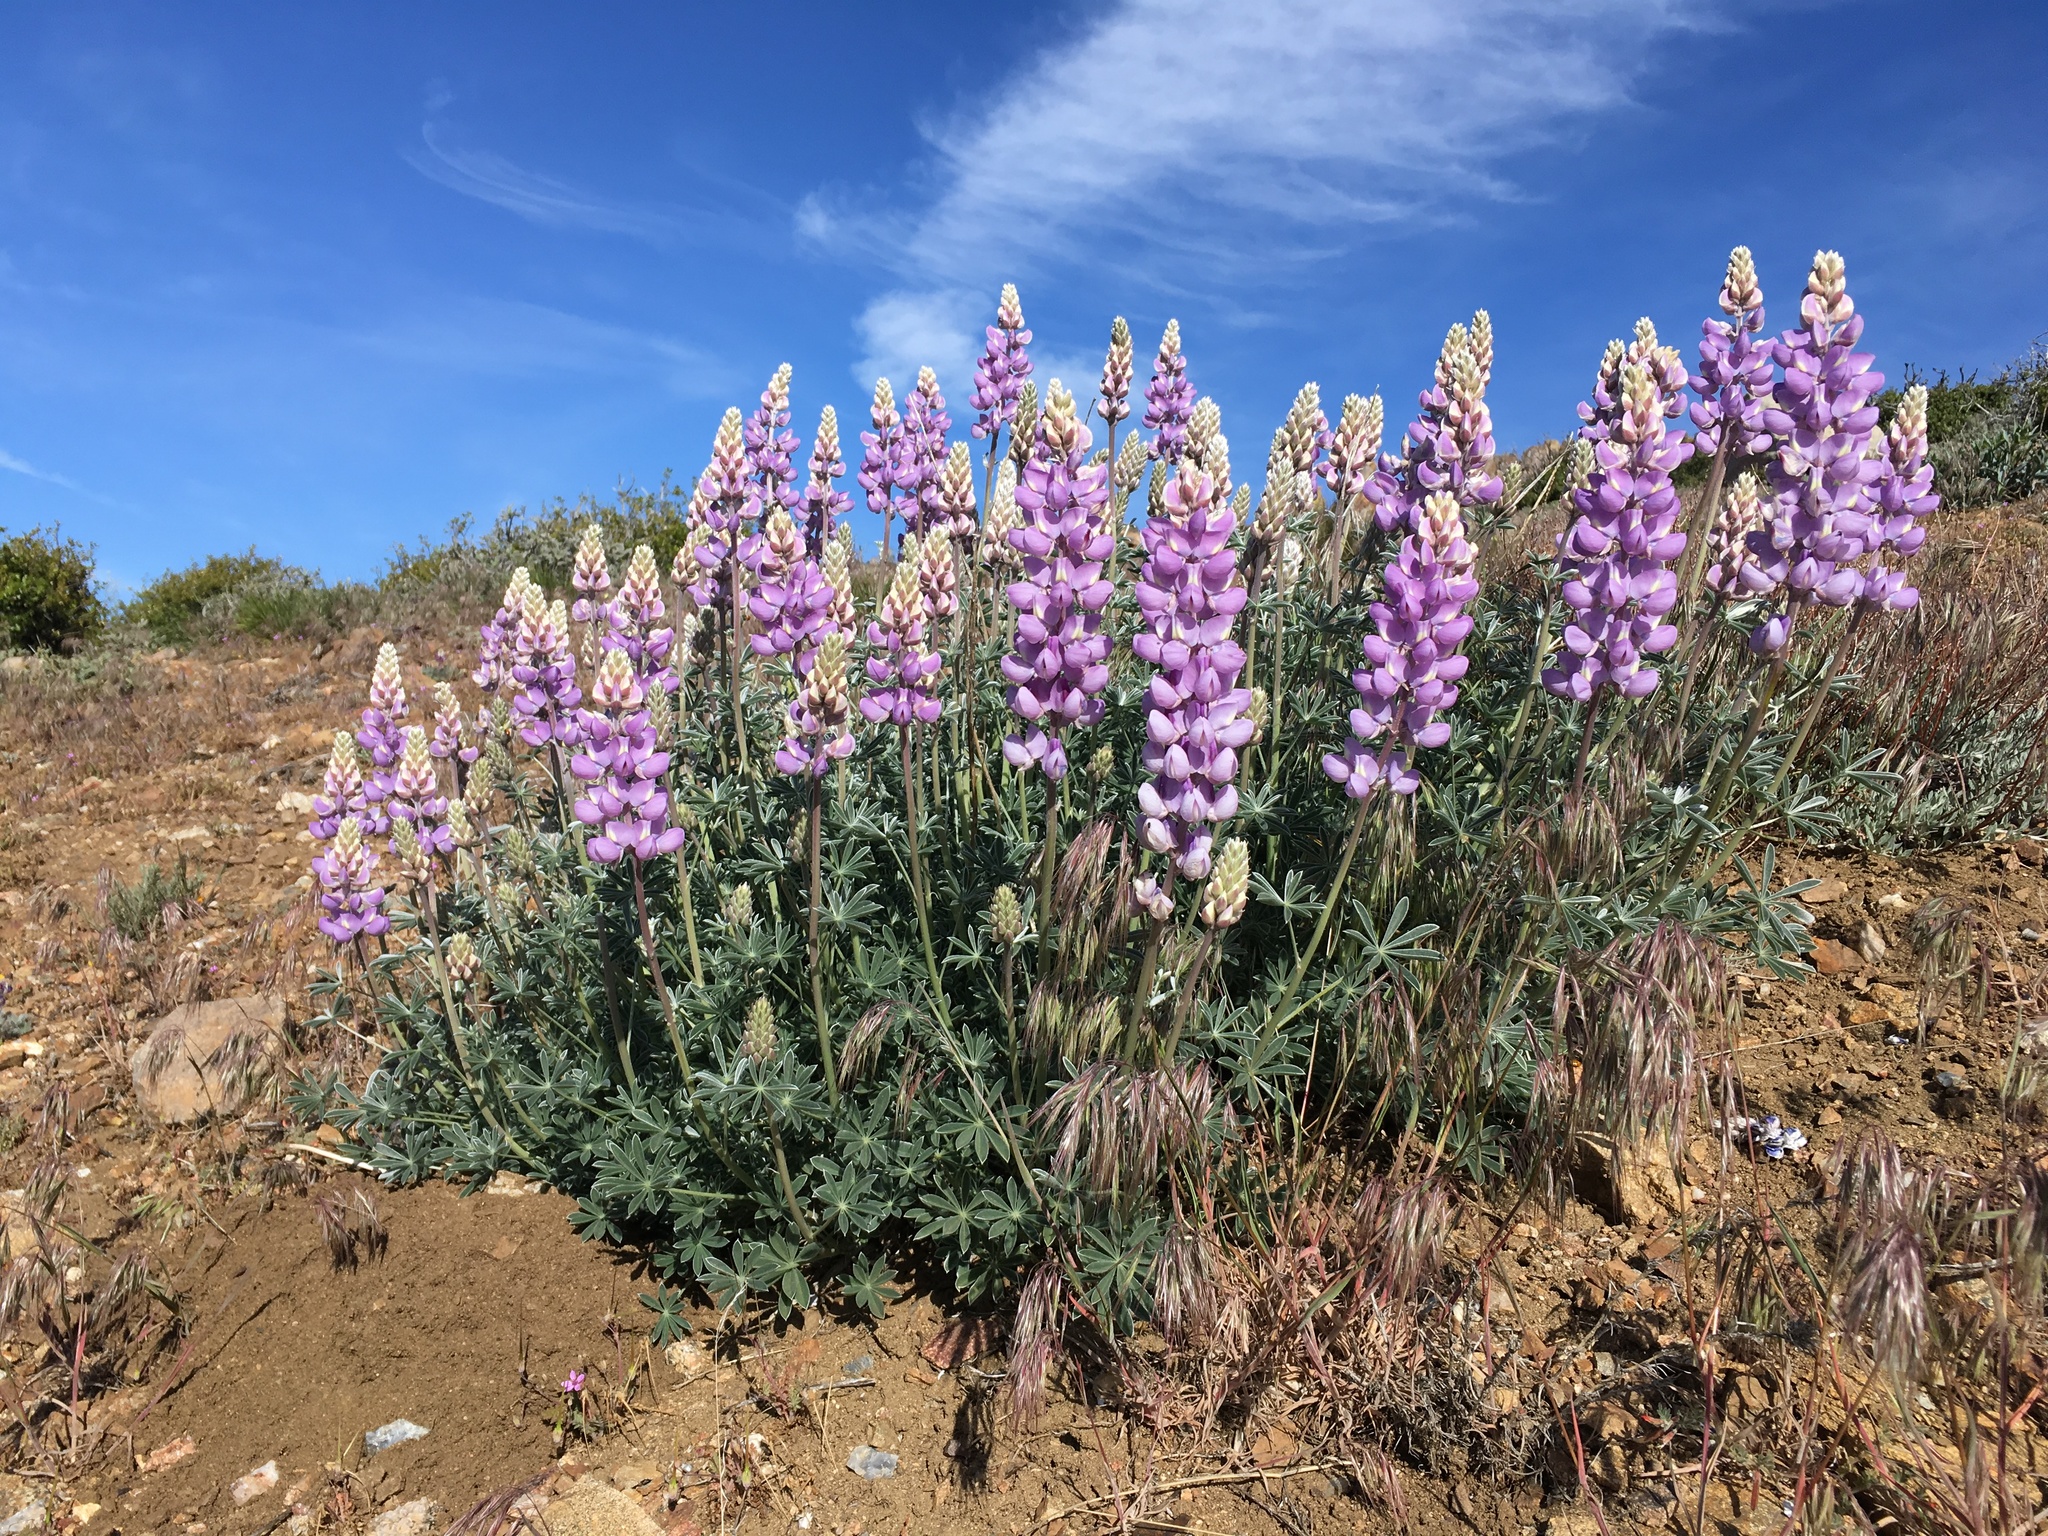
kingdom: Plantae
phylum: Tracheophyta
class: Magnoliopsida
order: Fabales
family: Fabaceae
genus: Lupinus
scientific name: Lupinus excubitus
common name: Grape soda lupine
